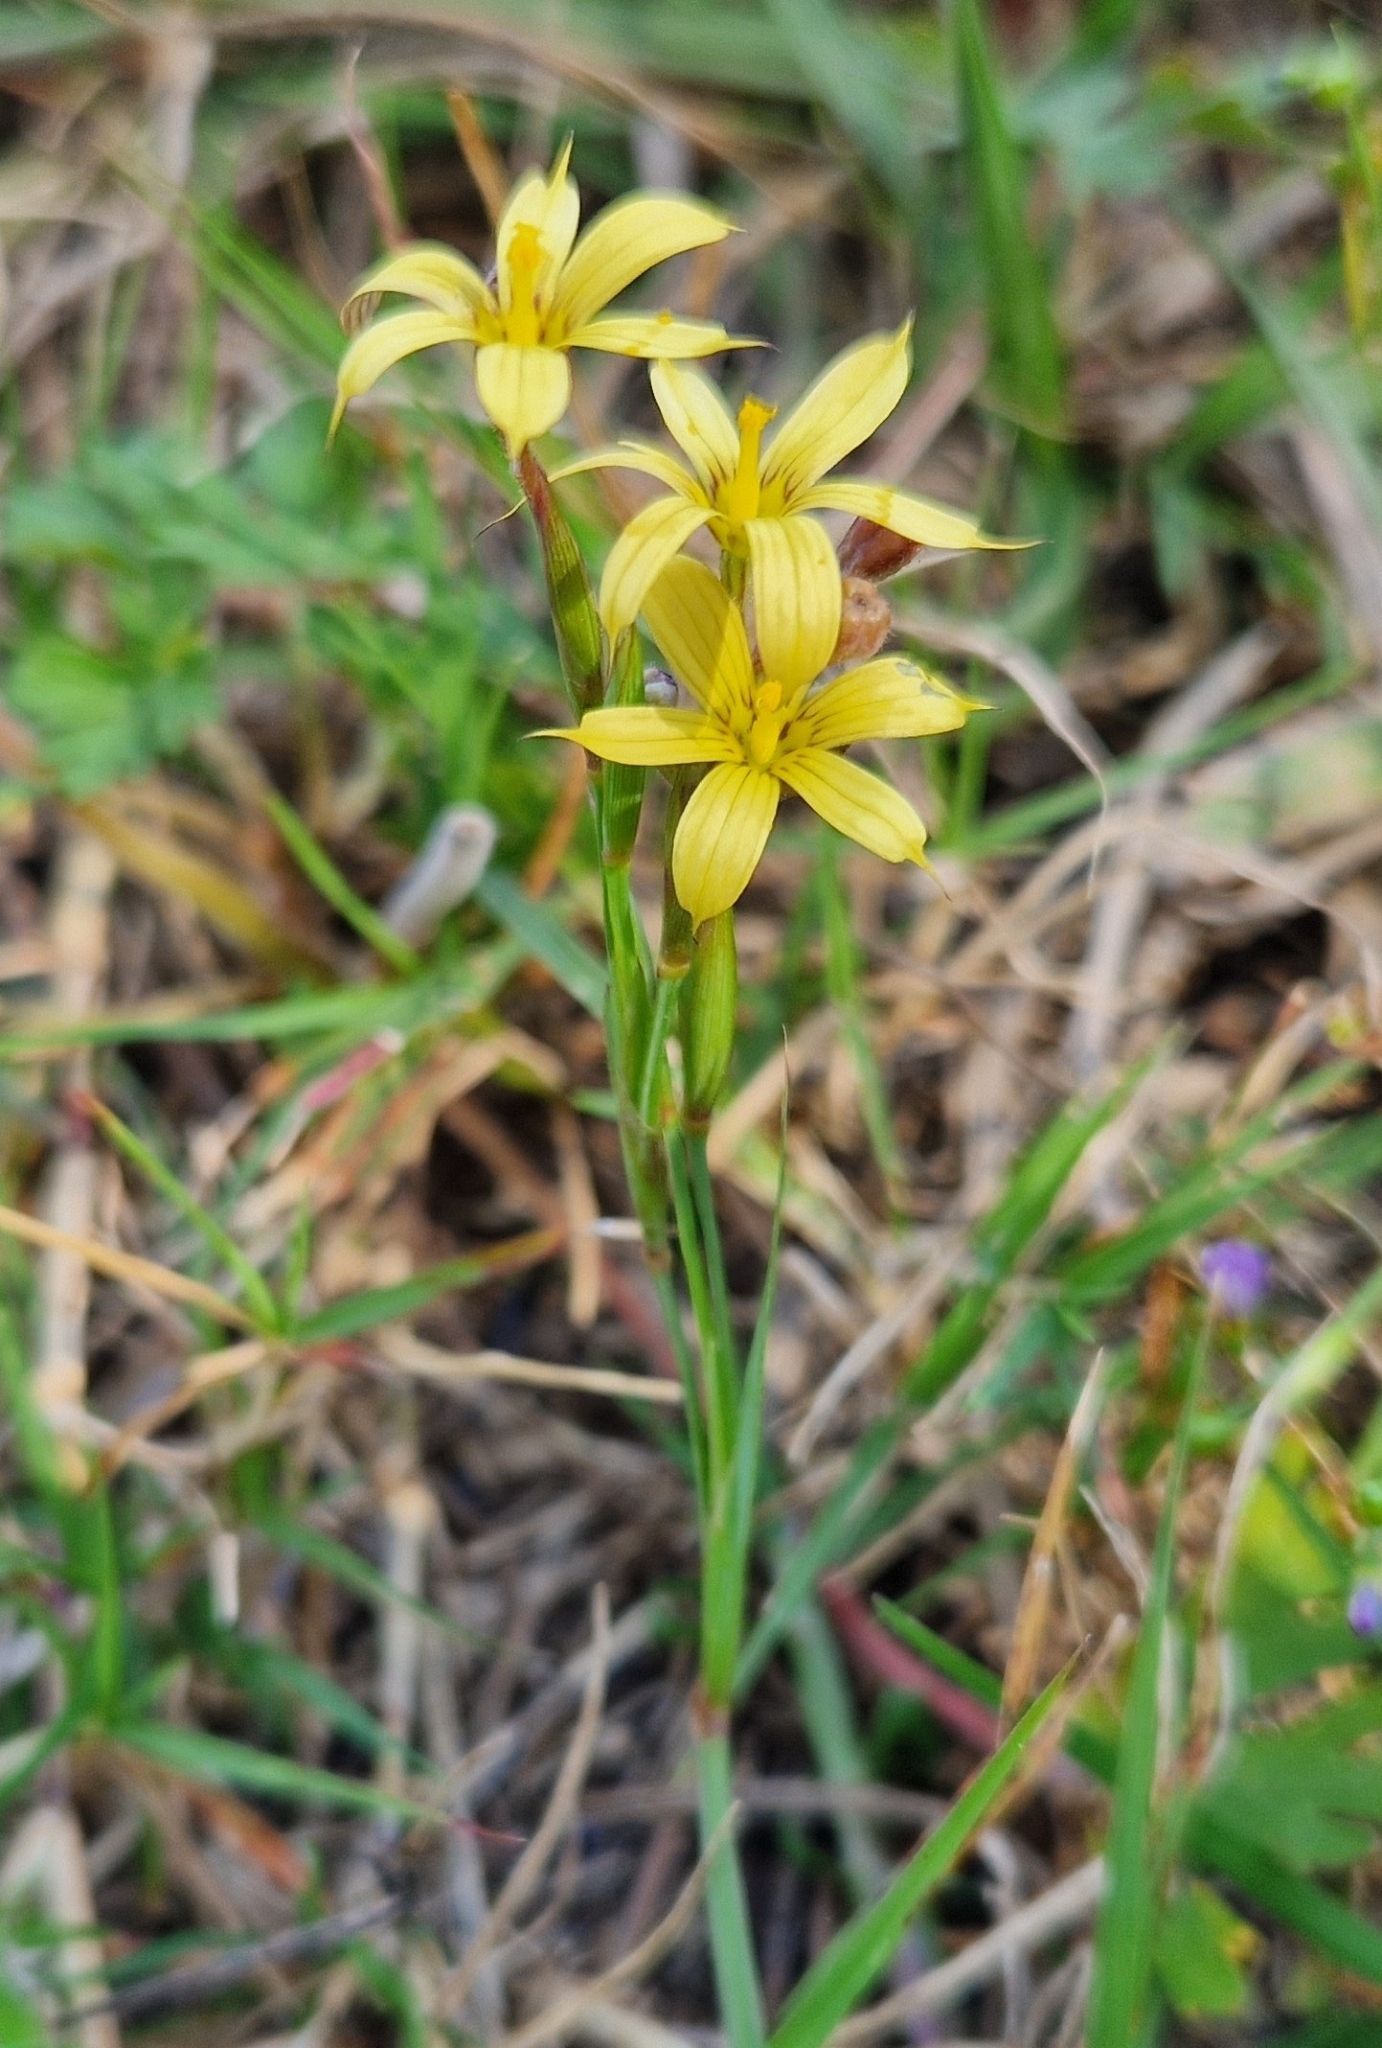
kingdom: Plantae
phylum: Tracheophyta
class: Liliopsida
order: Asparagales
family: Iridaceae
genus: Sisyrinchium
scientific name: Sisyrinchium pachyrhizum
